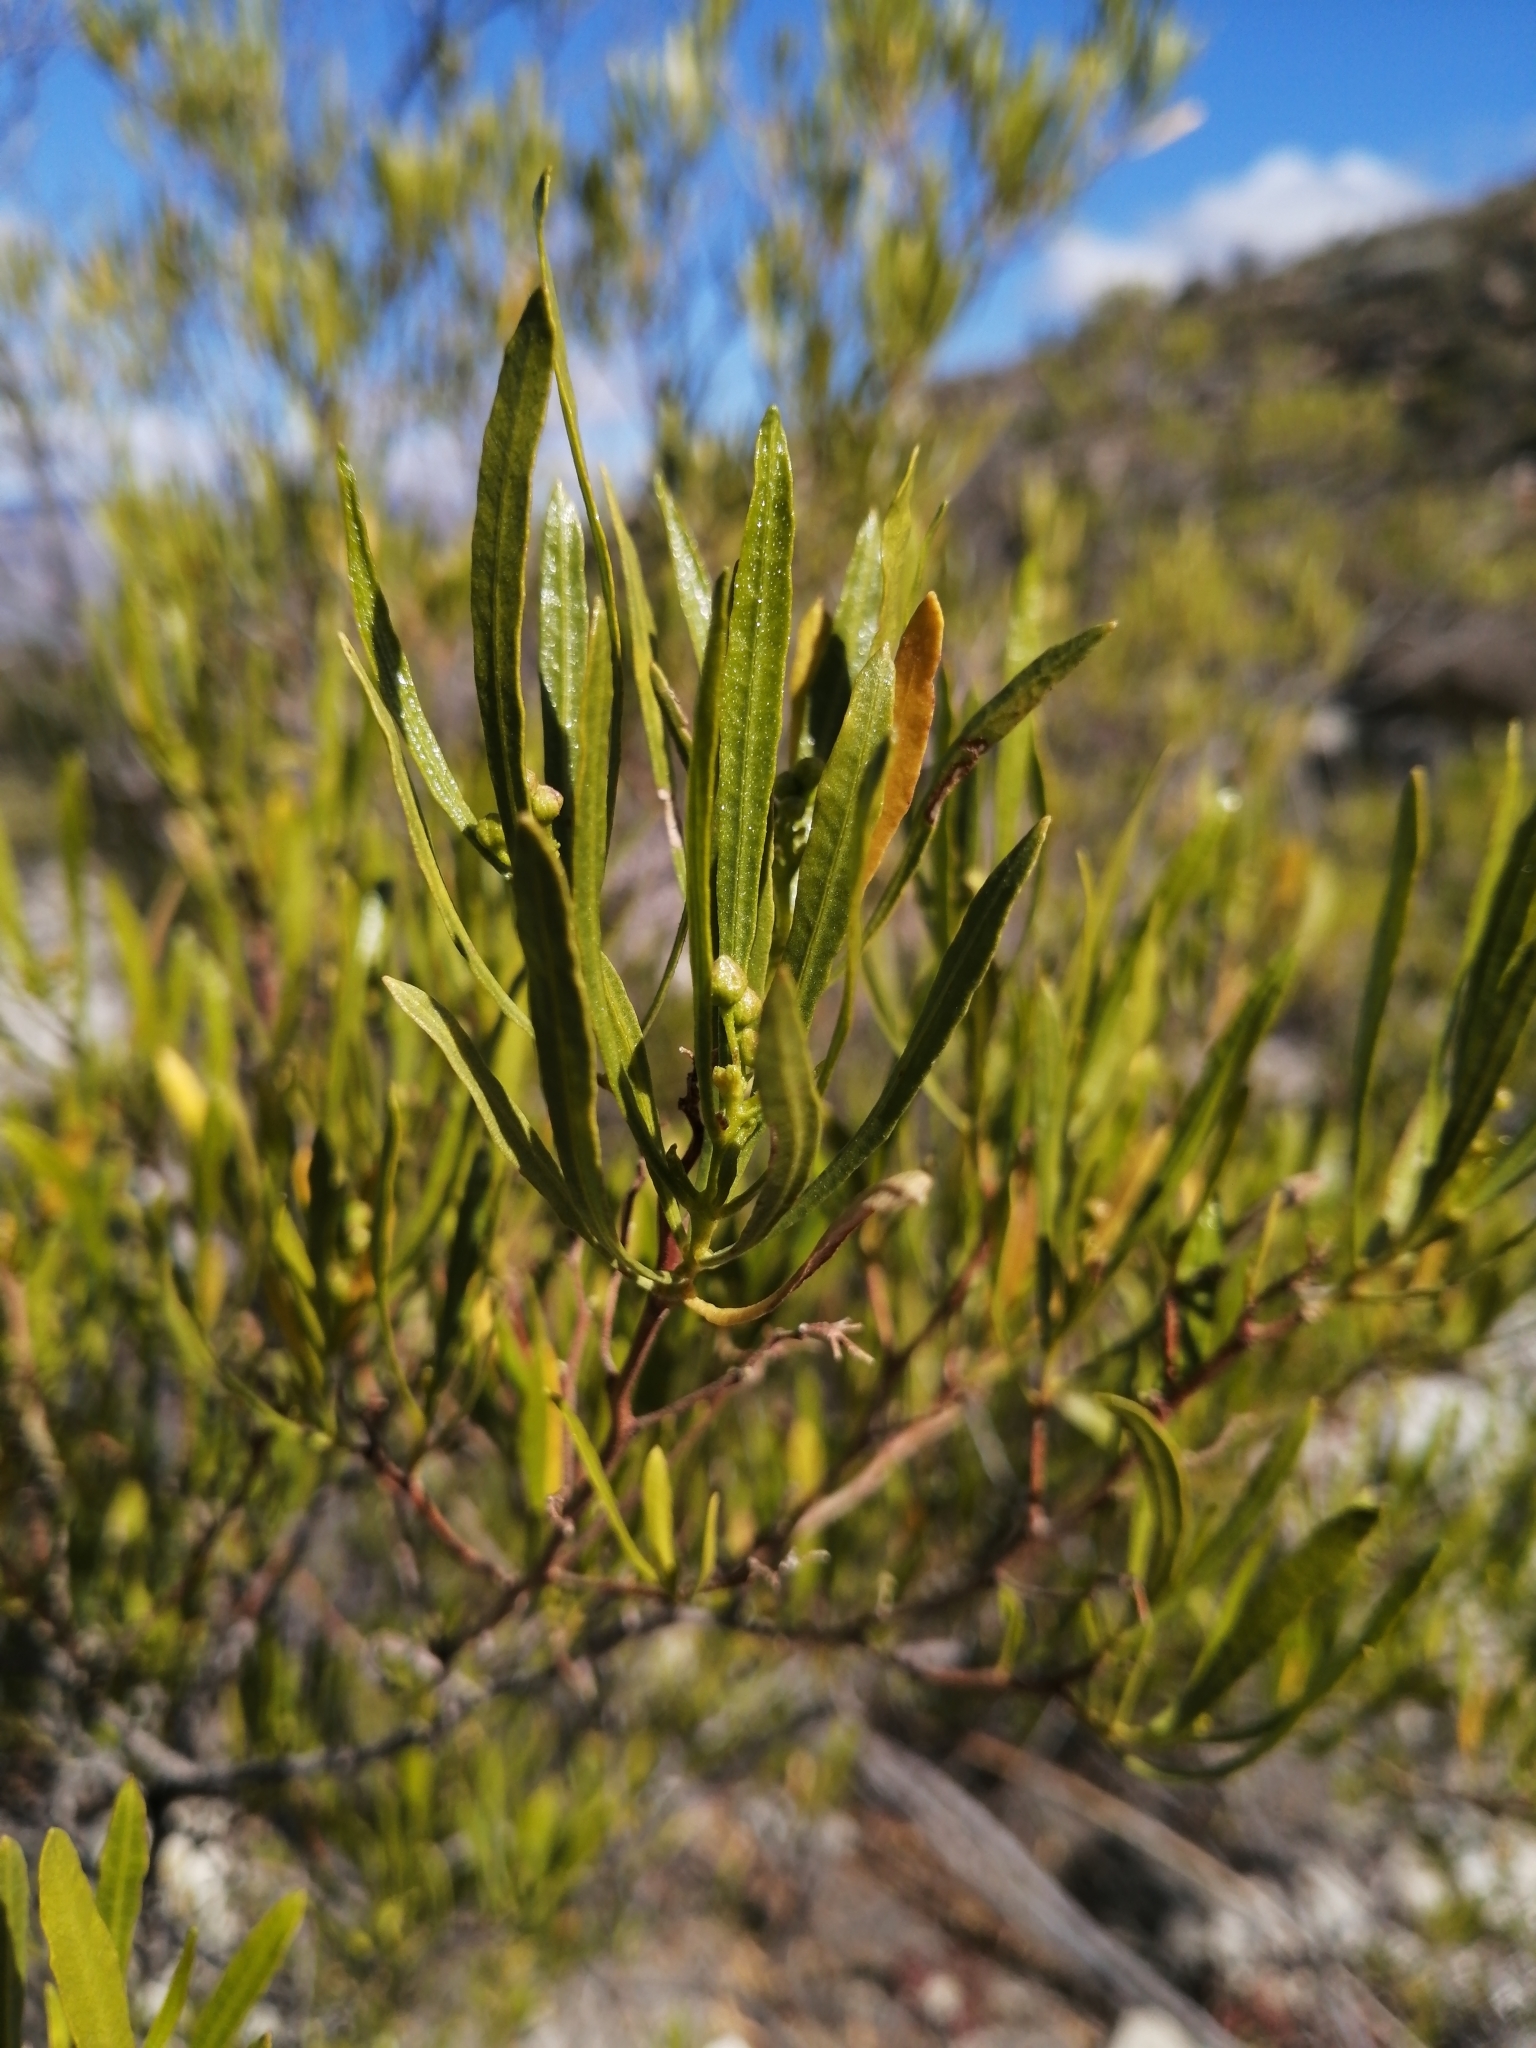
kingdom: Plantae
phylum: Tracheophyta
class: Magnoliopsida
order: Sapindales
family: Sapindaceae
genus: Dodonaea
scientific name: Dodonaea viscosa
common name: Hopbush
